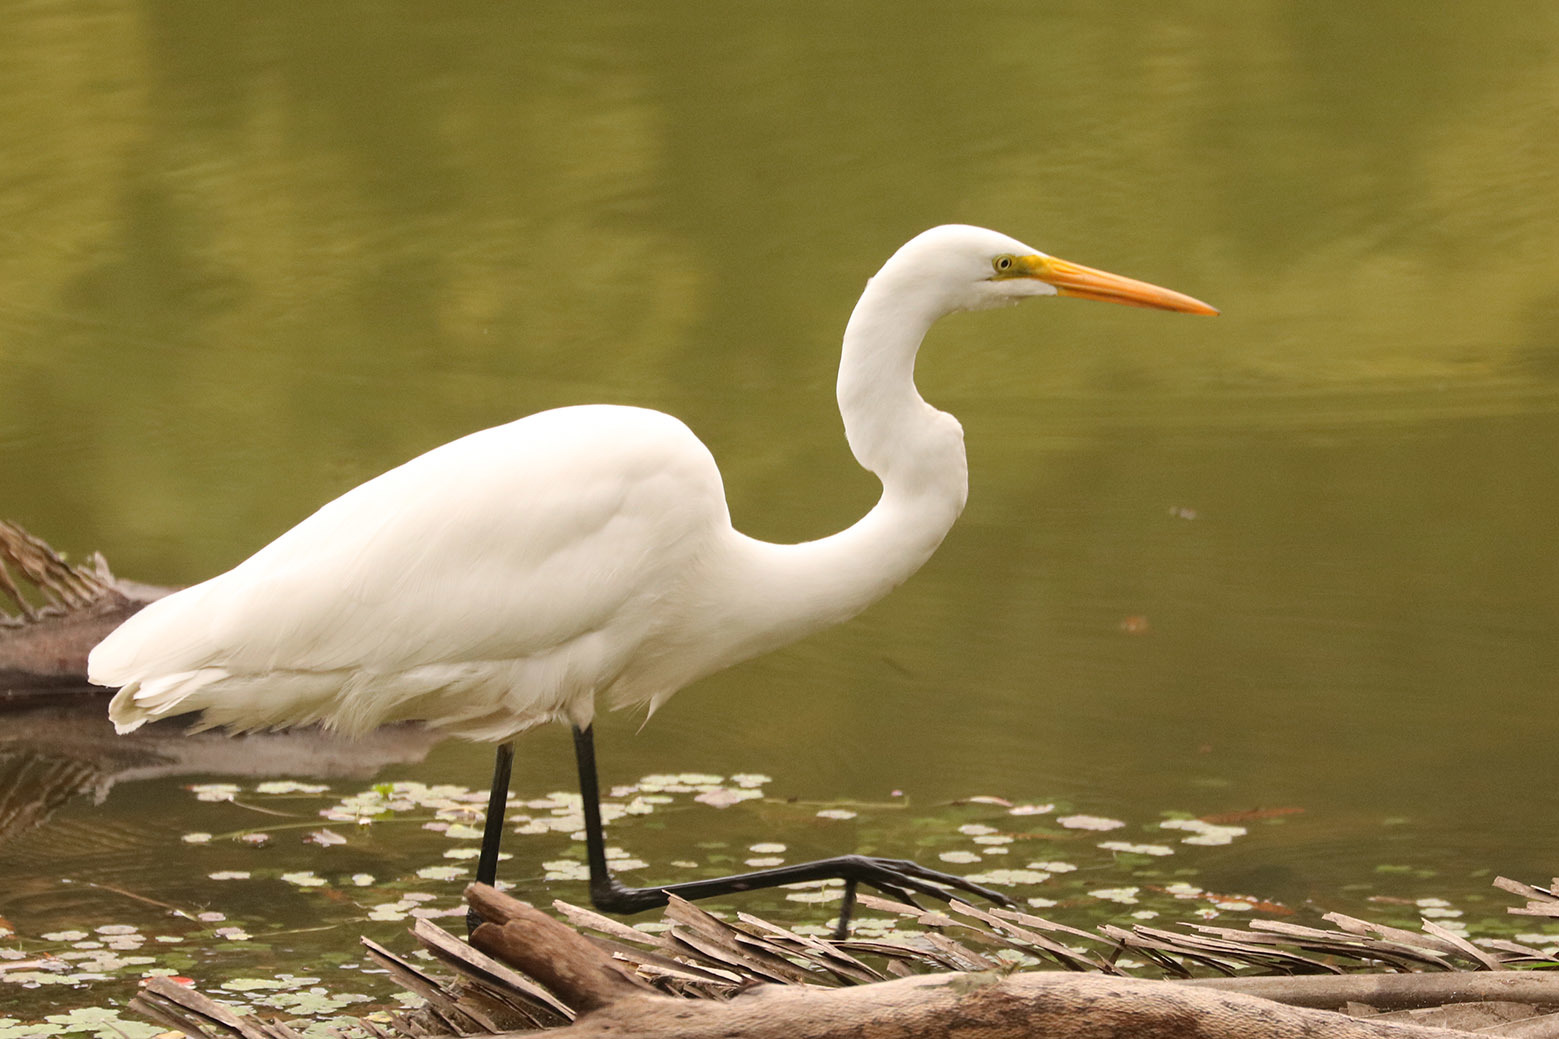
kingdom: Animalia
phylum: Chordata
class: Aves
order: Pelecaniformes
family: Ardeidae
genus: Ardea
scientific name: Ardea alba
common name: Great egret
